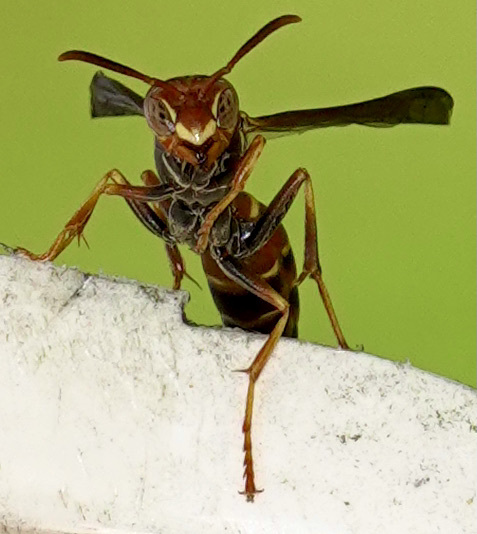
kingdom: Animalia
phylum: Arthropoda
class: Insecta
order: Hymenoptera
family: Eumenidae
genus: Polistes
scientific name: Polistes dorsalis
